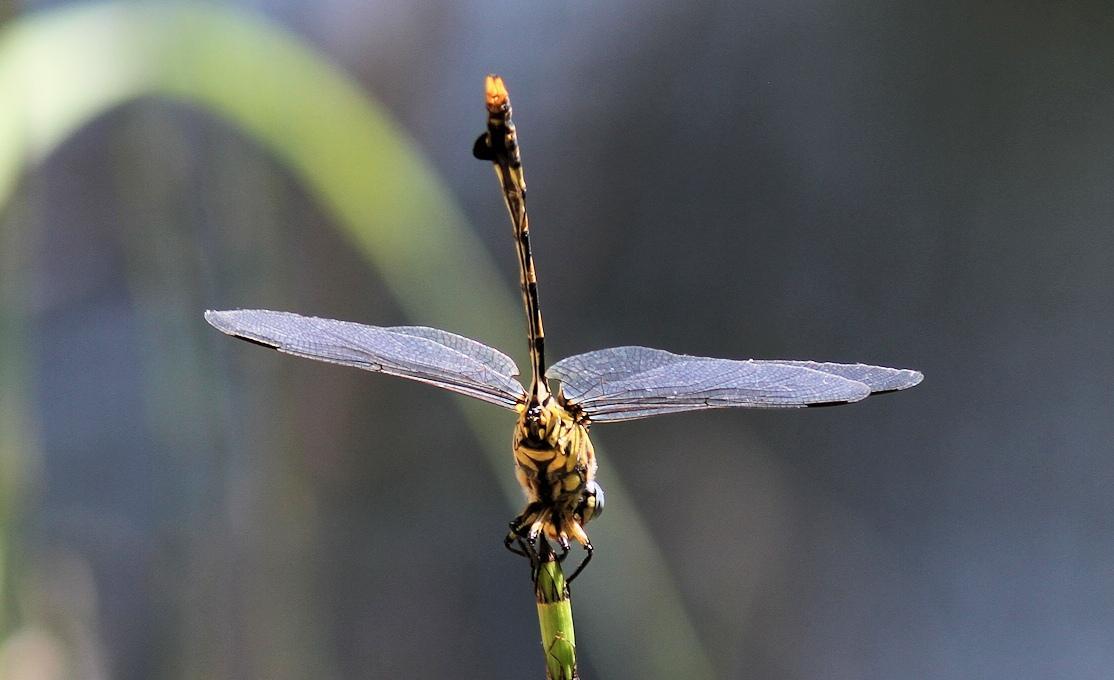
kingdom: Animalia
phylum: Arthropoda
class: Insecta
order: Odonata
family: Gomphidae
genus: Ictinogomphus
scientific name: Ictinogomphus ferox
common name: Common tiger
